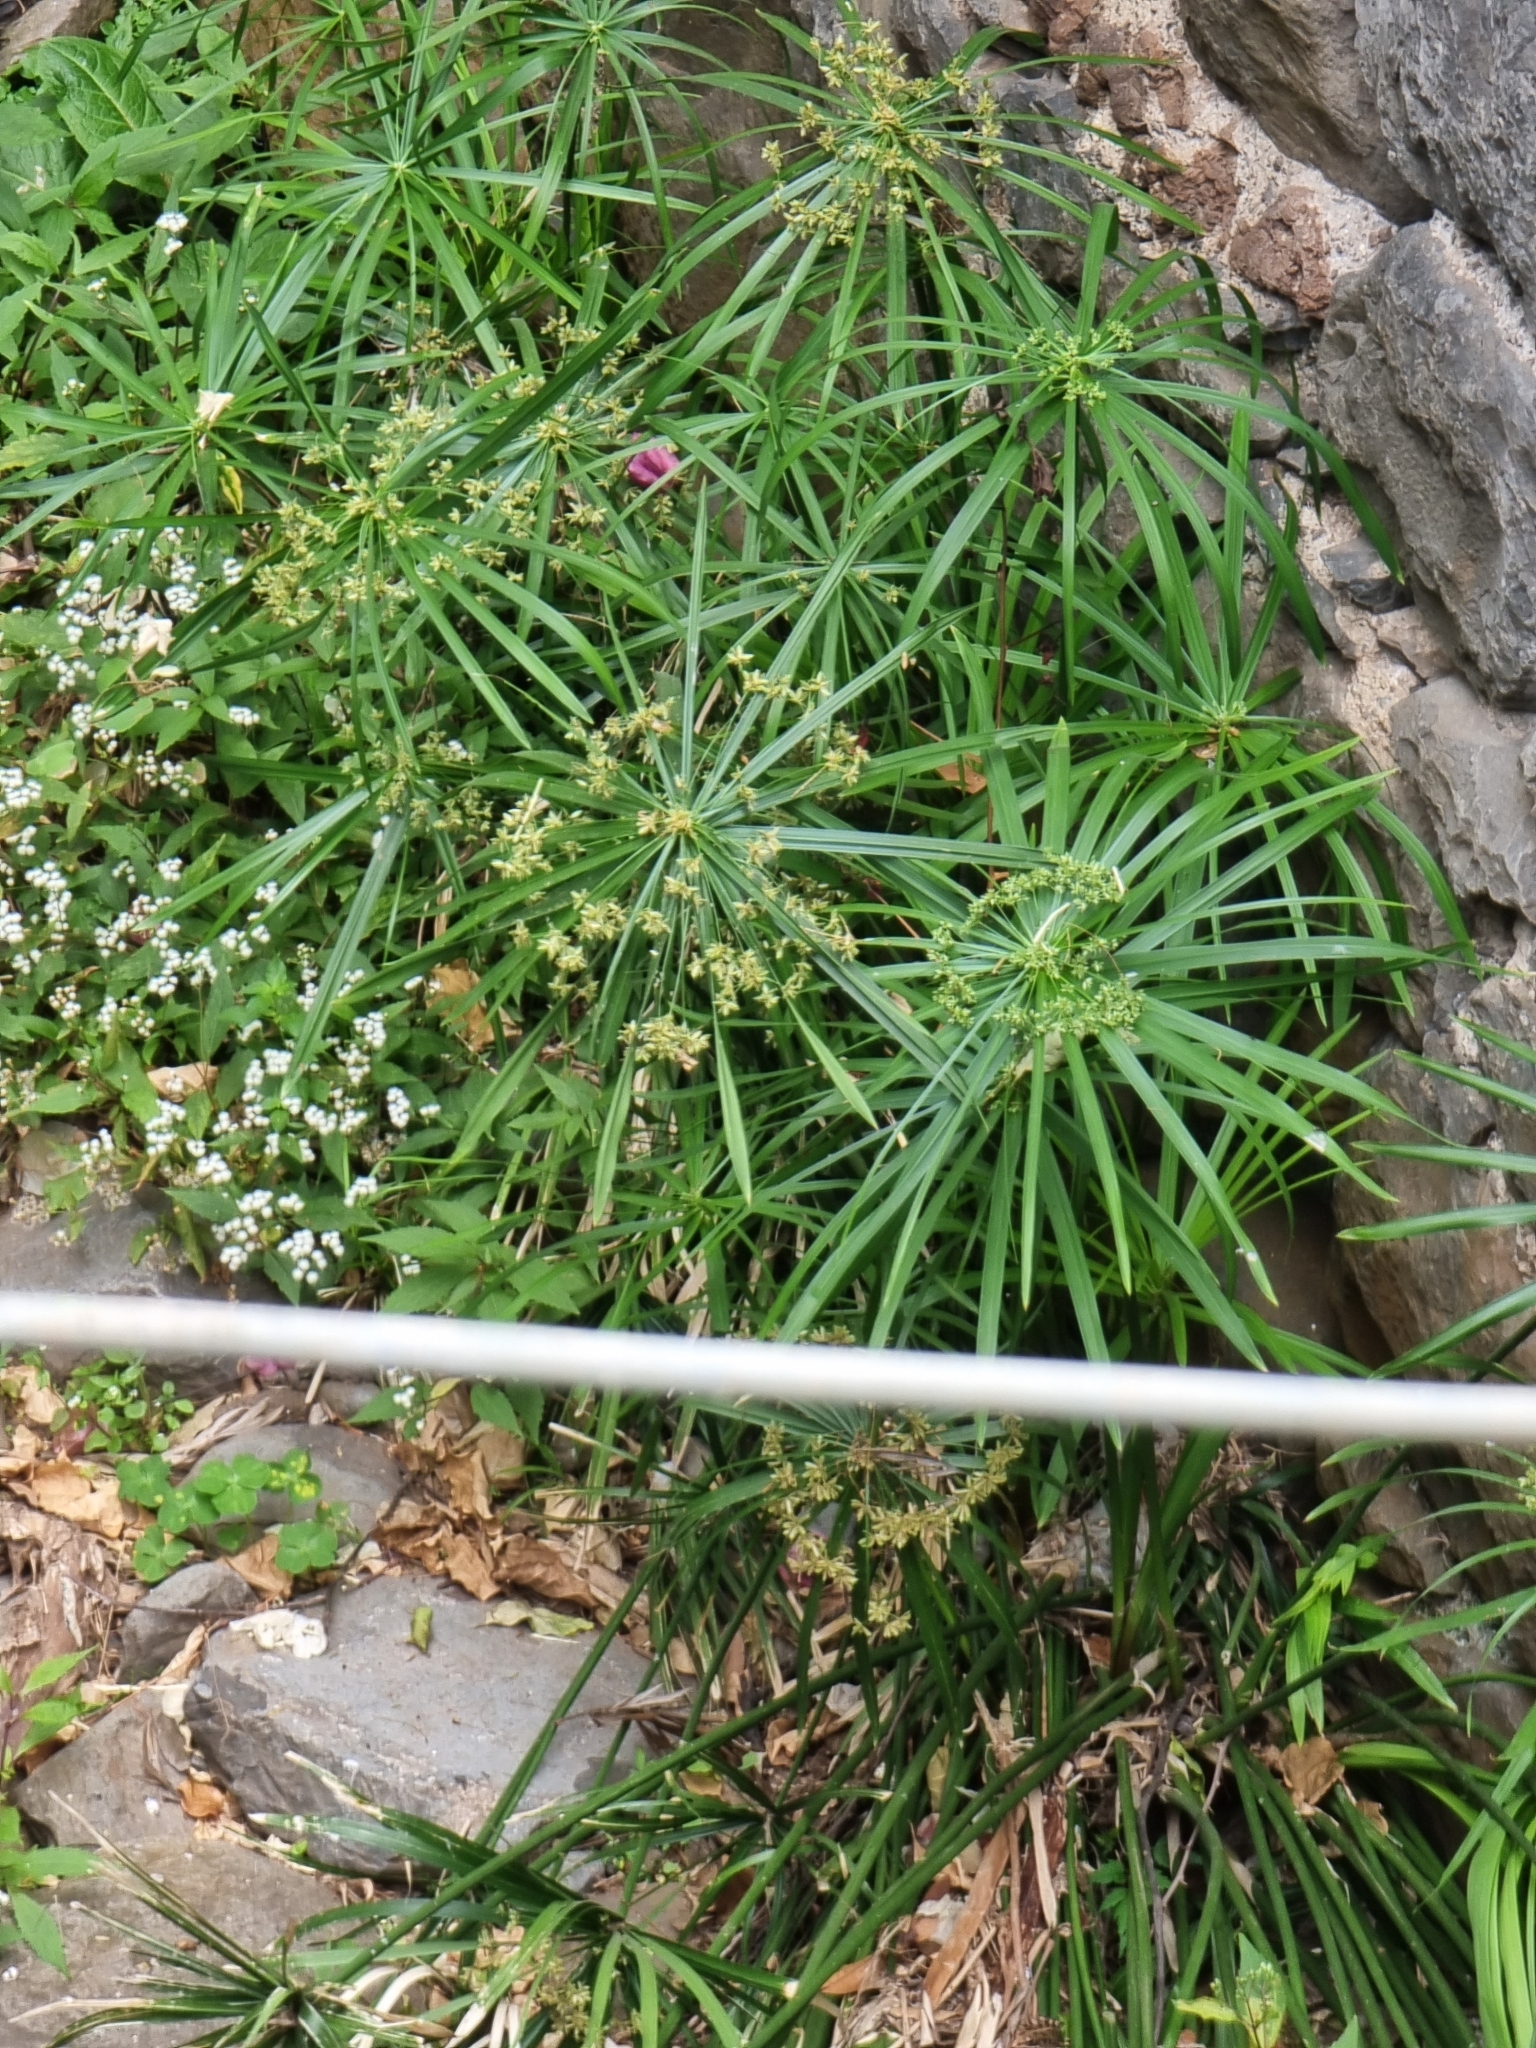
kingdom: Plantae
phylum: Tracheophyta
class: Liliopsida
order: Poales
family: Cyperaceae
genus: Cyperus
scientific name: Cyperus alternifolius
